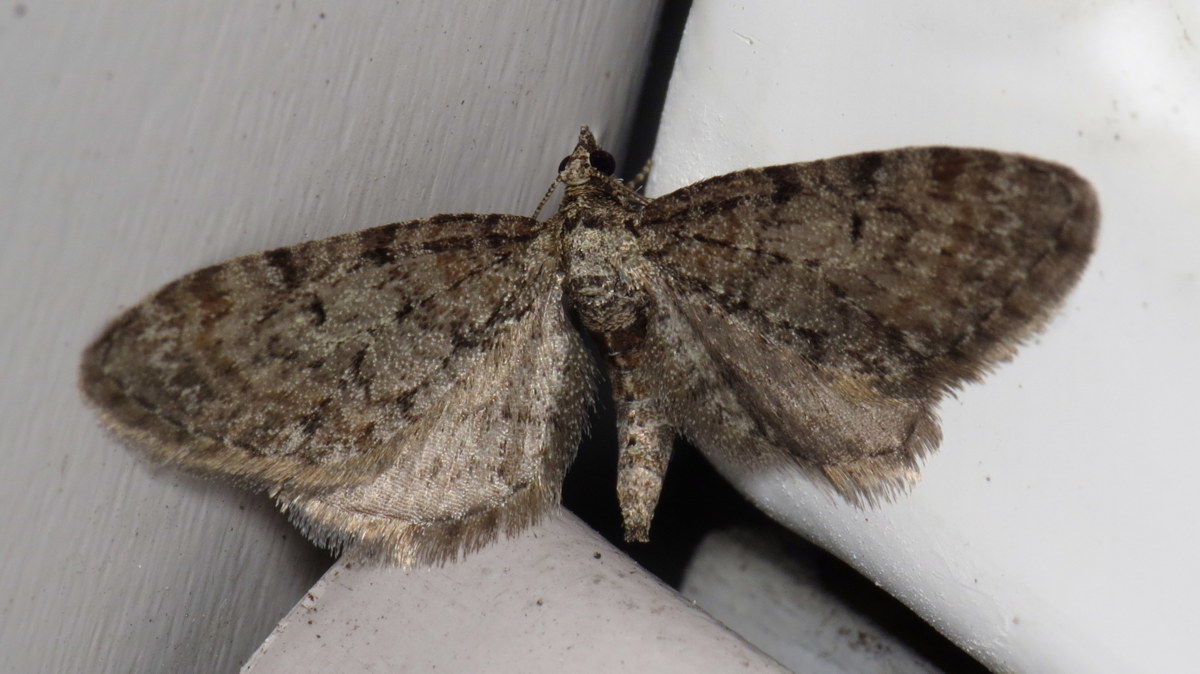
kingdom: Animalia
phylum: Arthropoda
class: Insecta
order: Lepidoptera
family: Geometridae
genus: Eupithecia
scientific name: Eupithecia
